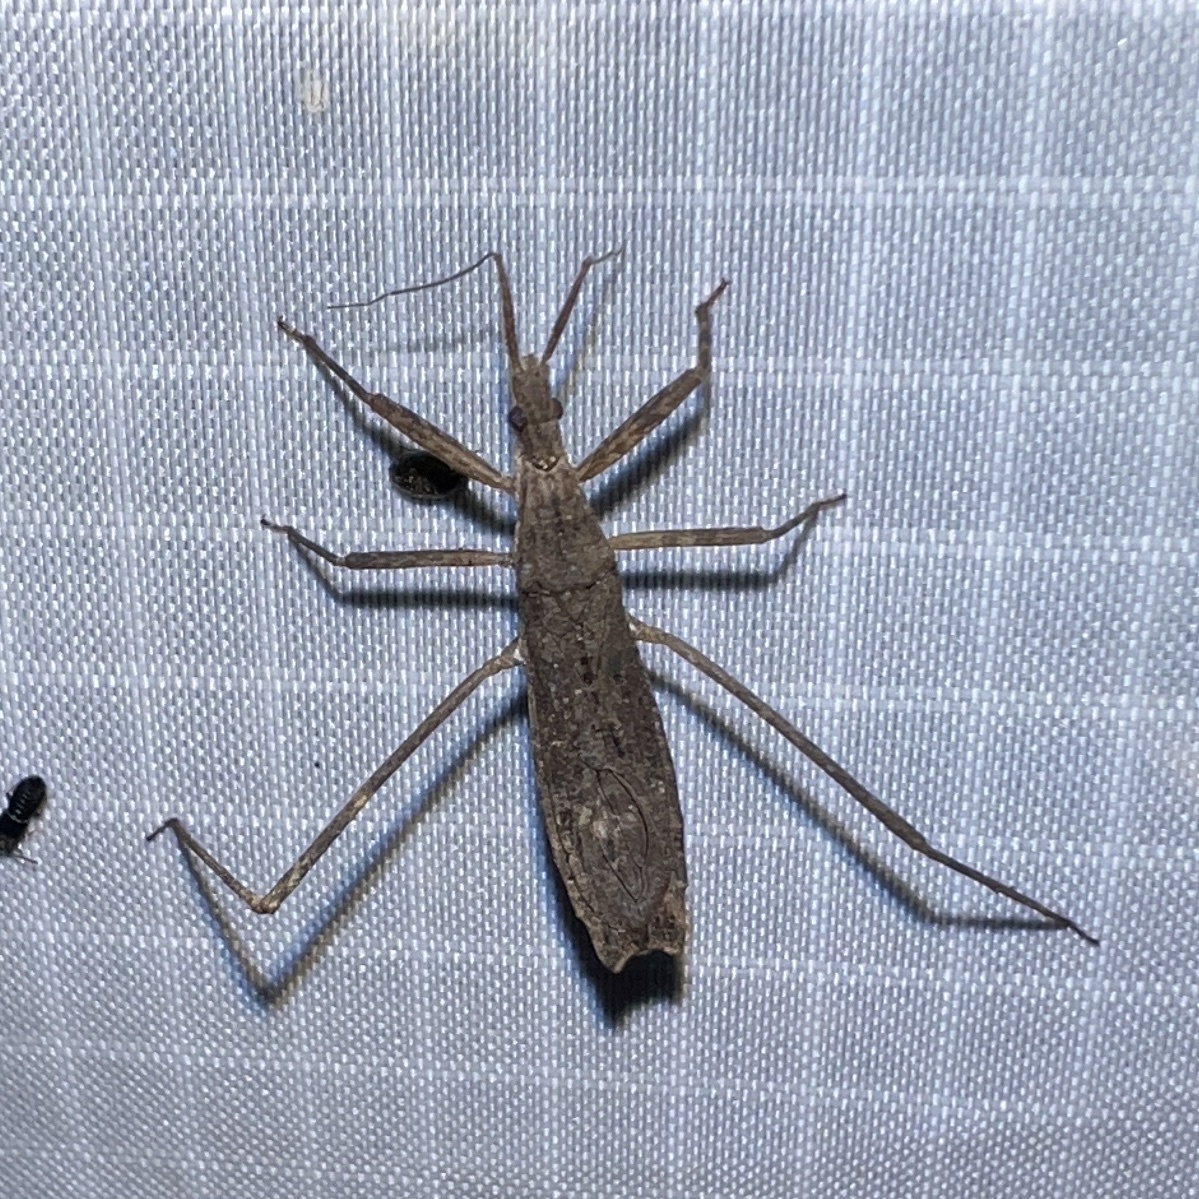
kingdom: Animalia
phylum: Arthropoda
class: Insecta
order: Hemiptera
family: Reduviidae
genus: Pygolampis
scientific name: Pygolampis pectoralis
